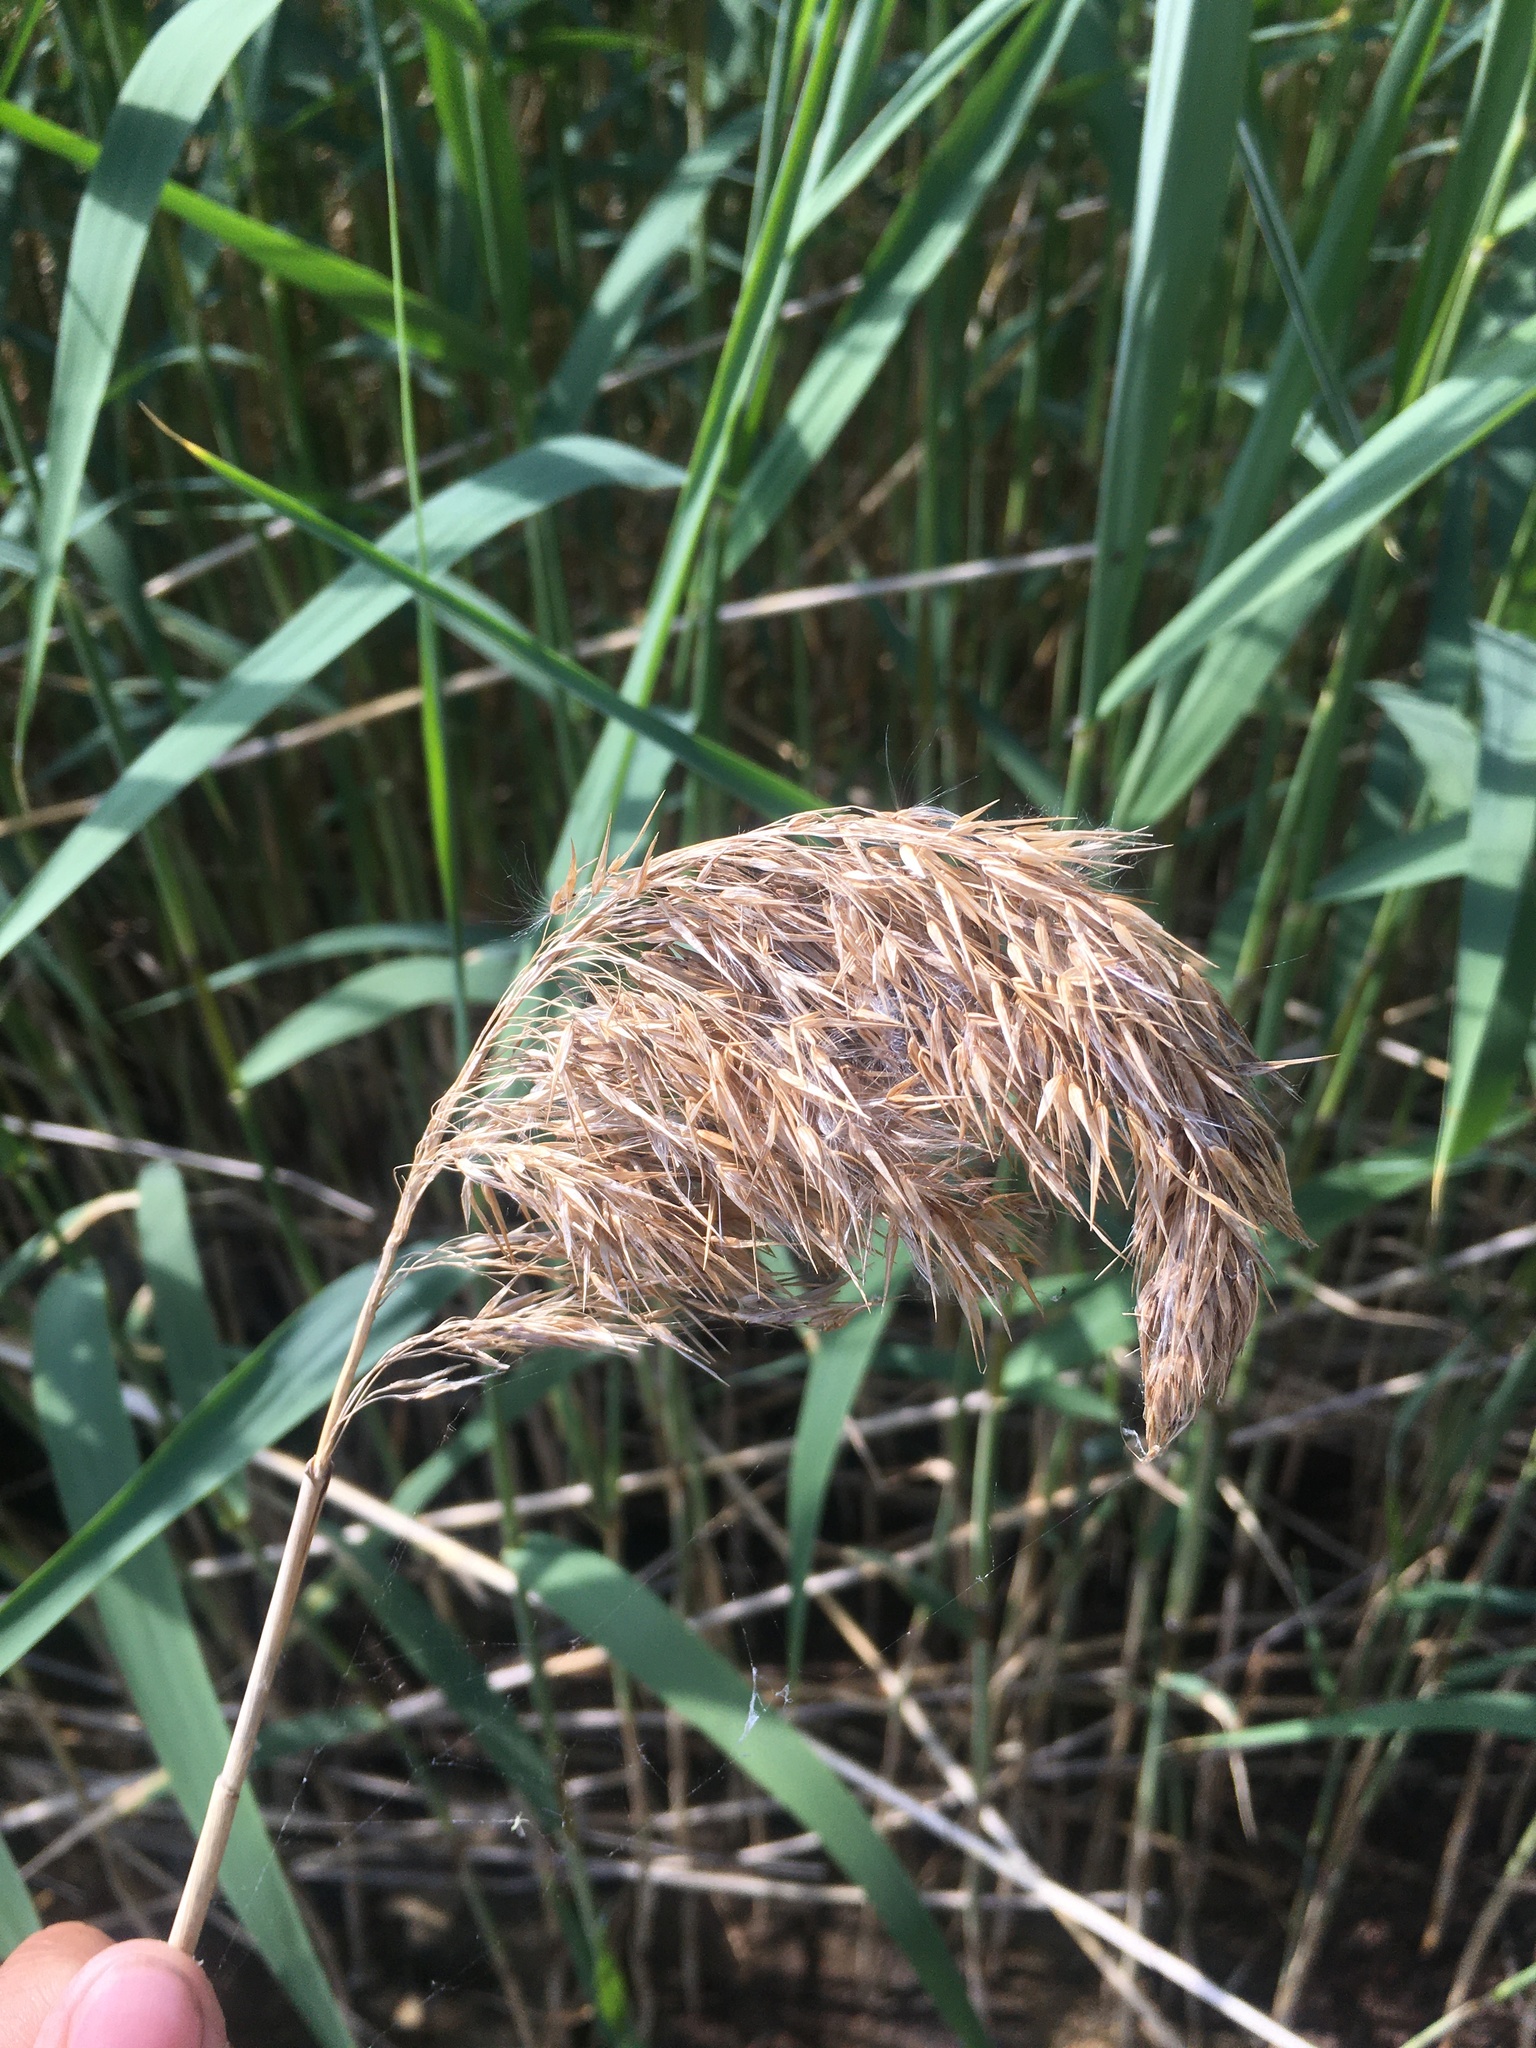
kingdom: Plantae
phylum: Tracheophyta
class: Liliopsida
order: Poales
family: Poaceae
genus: Phragmites
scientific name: Phragmites australis
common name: Common reed
